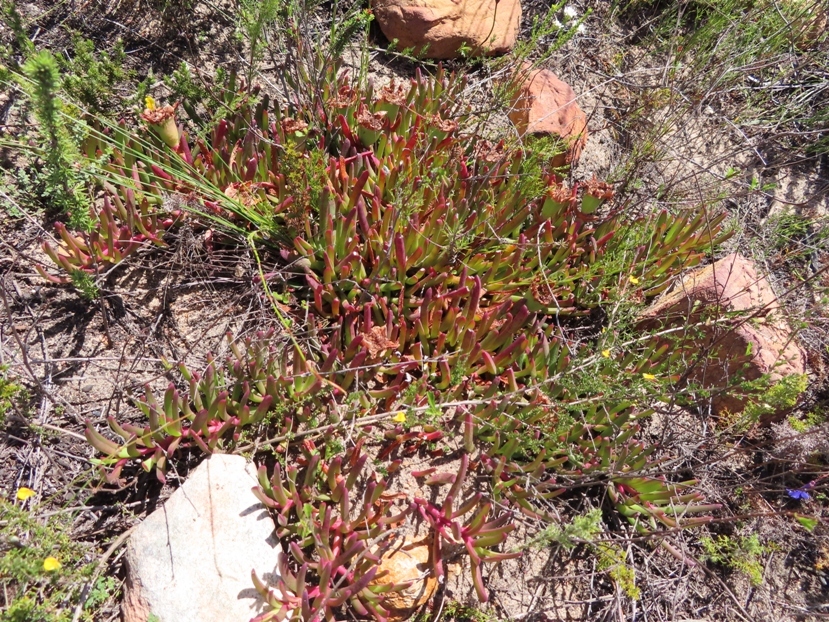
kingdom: Plantae
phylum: Tracheophyta
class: Magnoliopsida
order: Caryophyllales
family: Aizoaceae
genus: Carpobrotus
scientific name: Carpobrotus muirii
